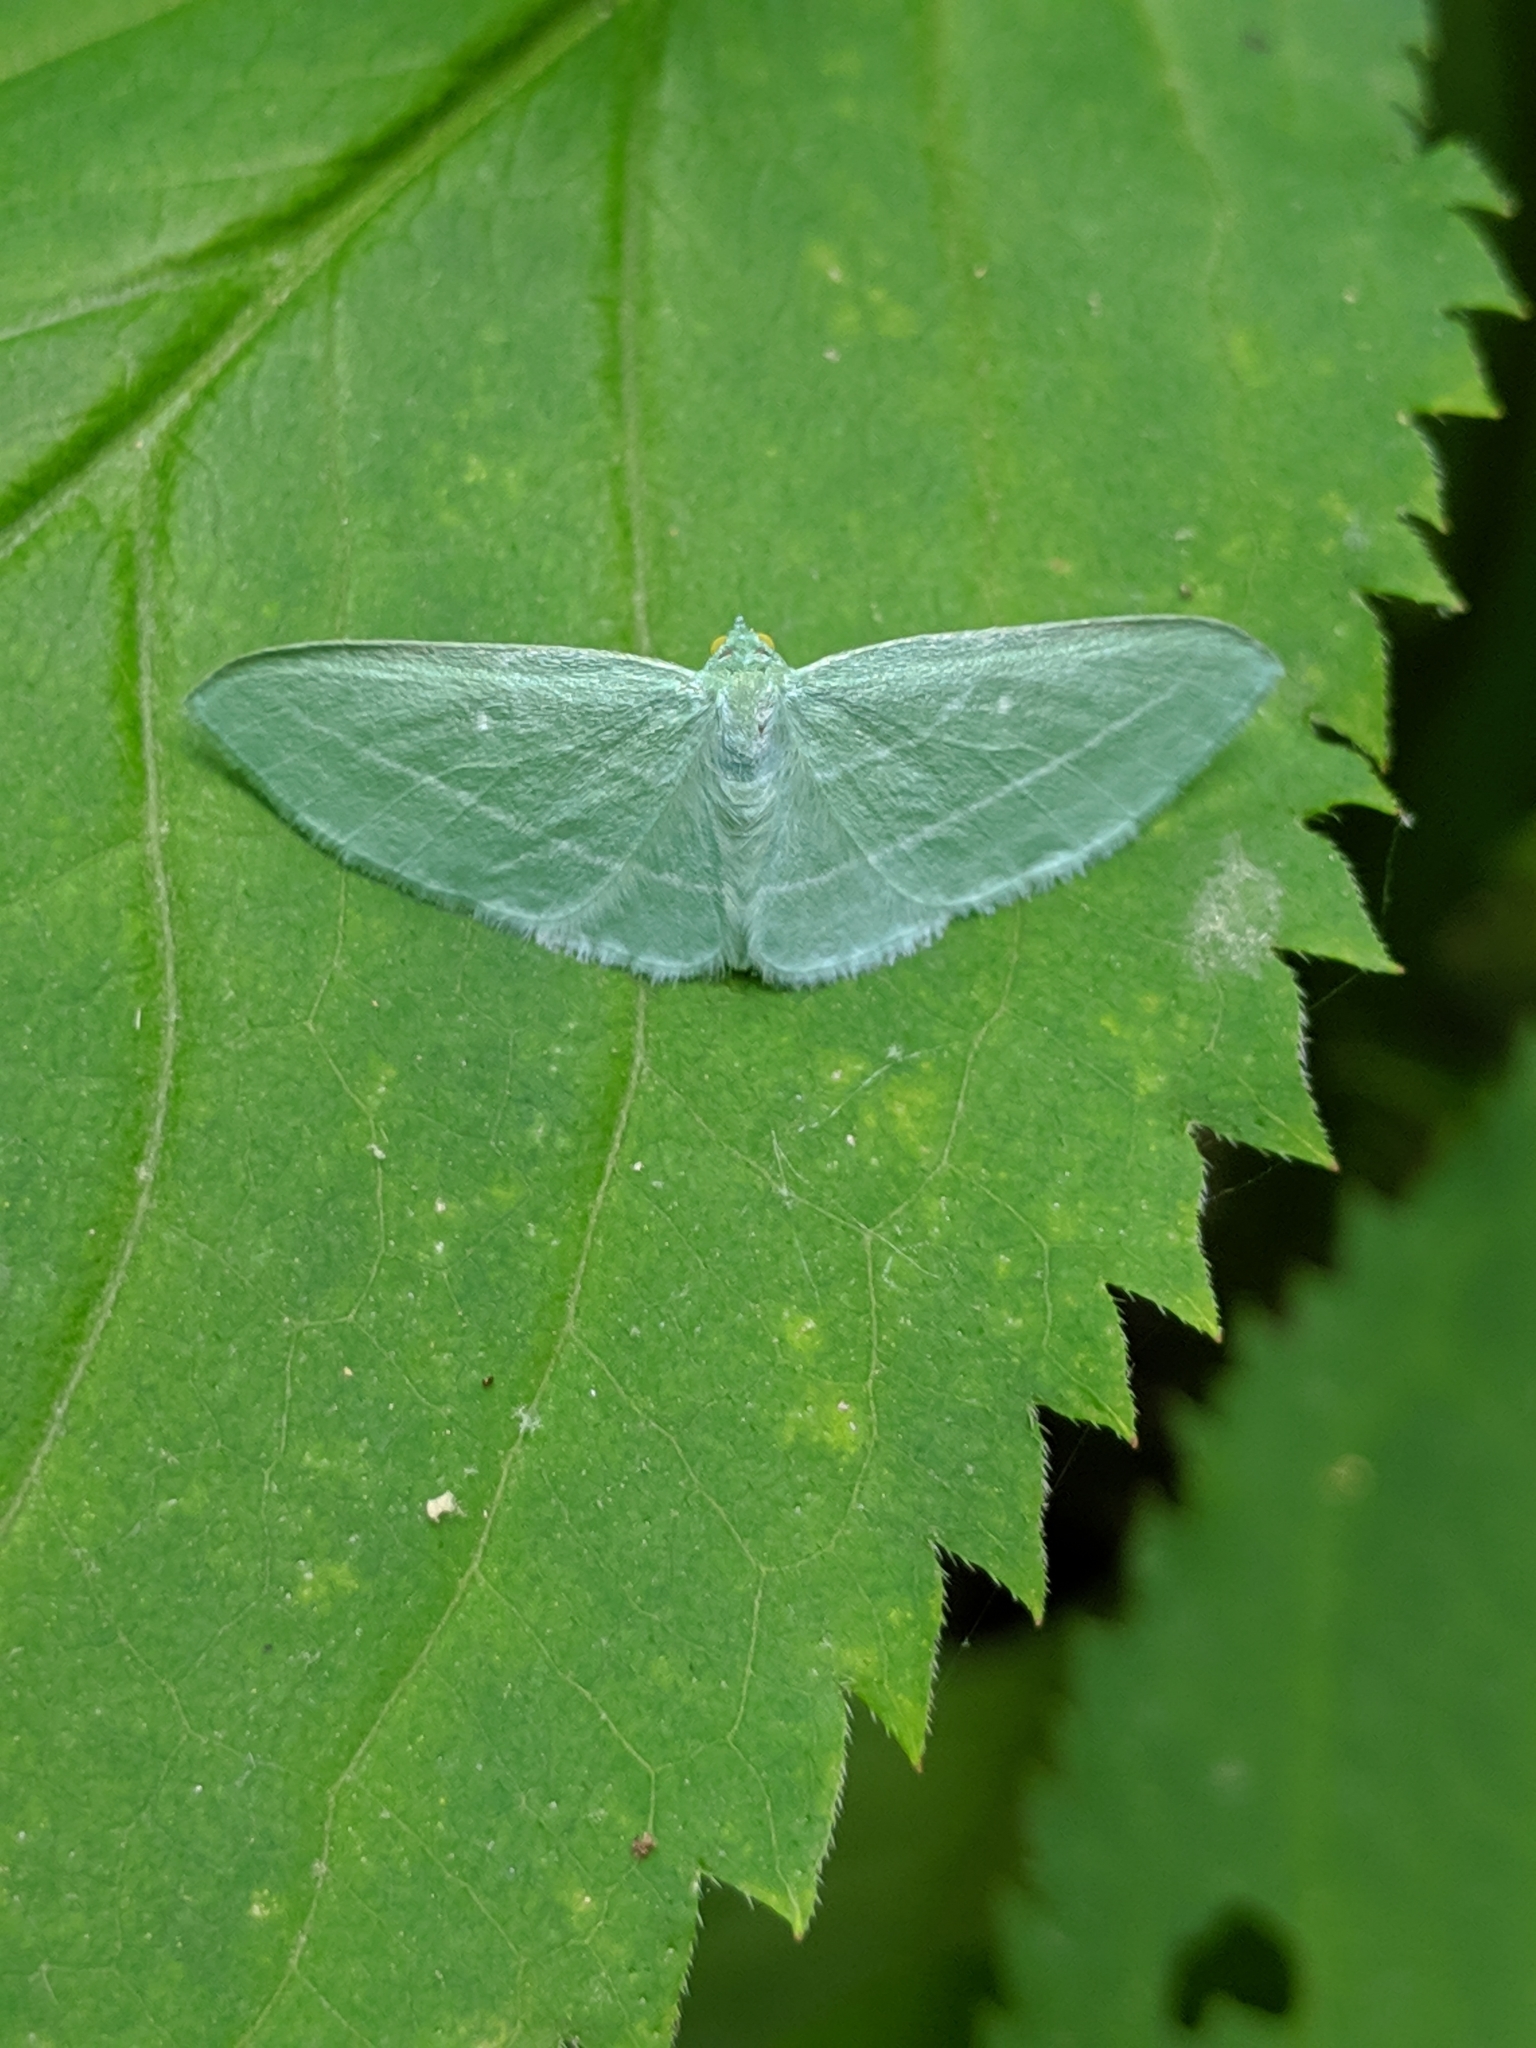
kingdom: Animalia
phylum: Arthropoda
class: Insecta
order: Lepidoptera
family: Geometridae
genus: Dyspteris
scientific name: Dyspteris abortivaria
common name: Bad-wing
